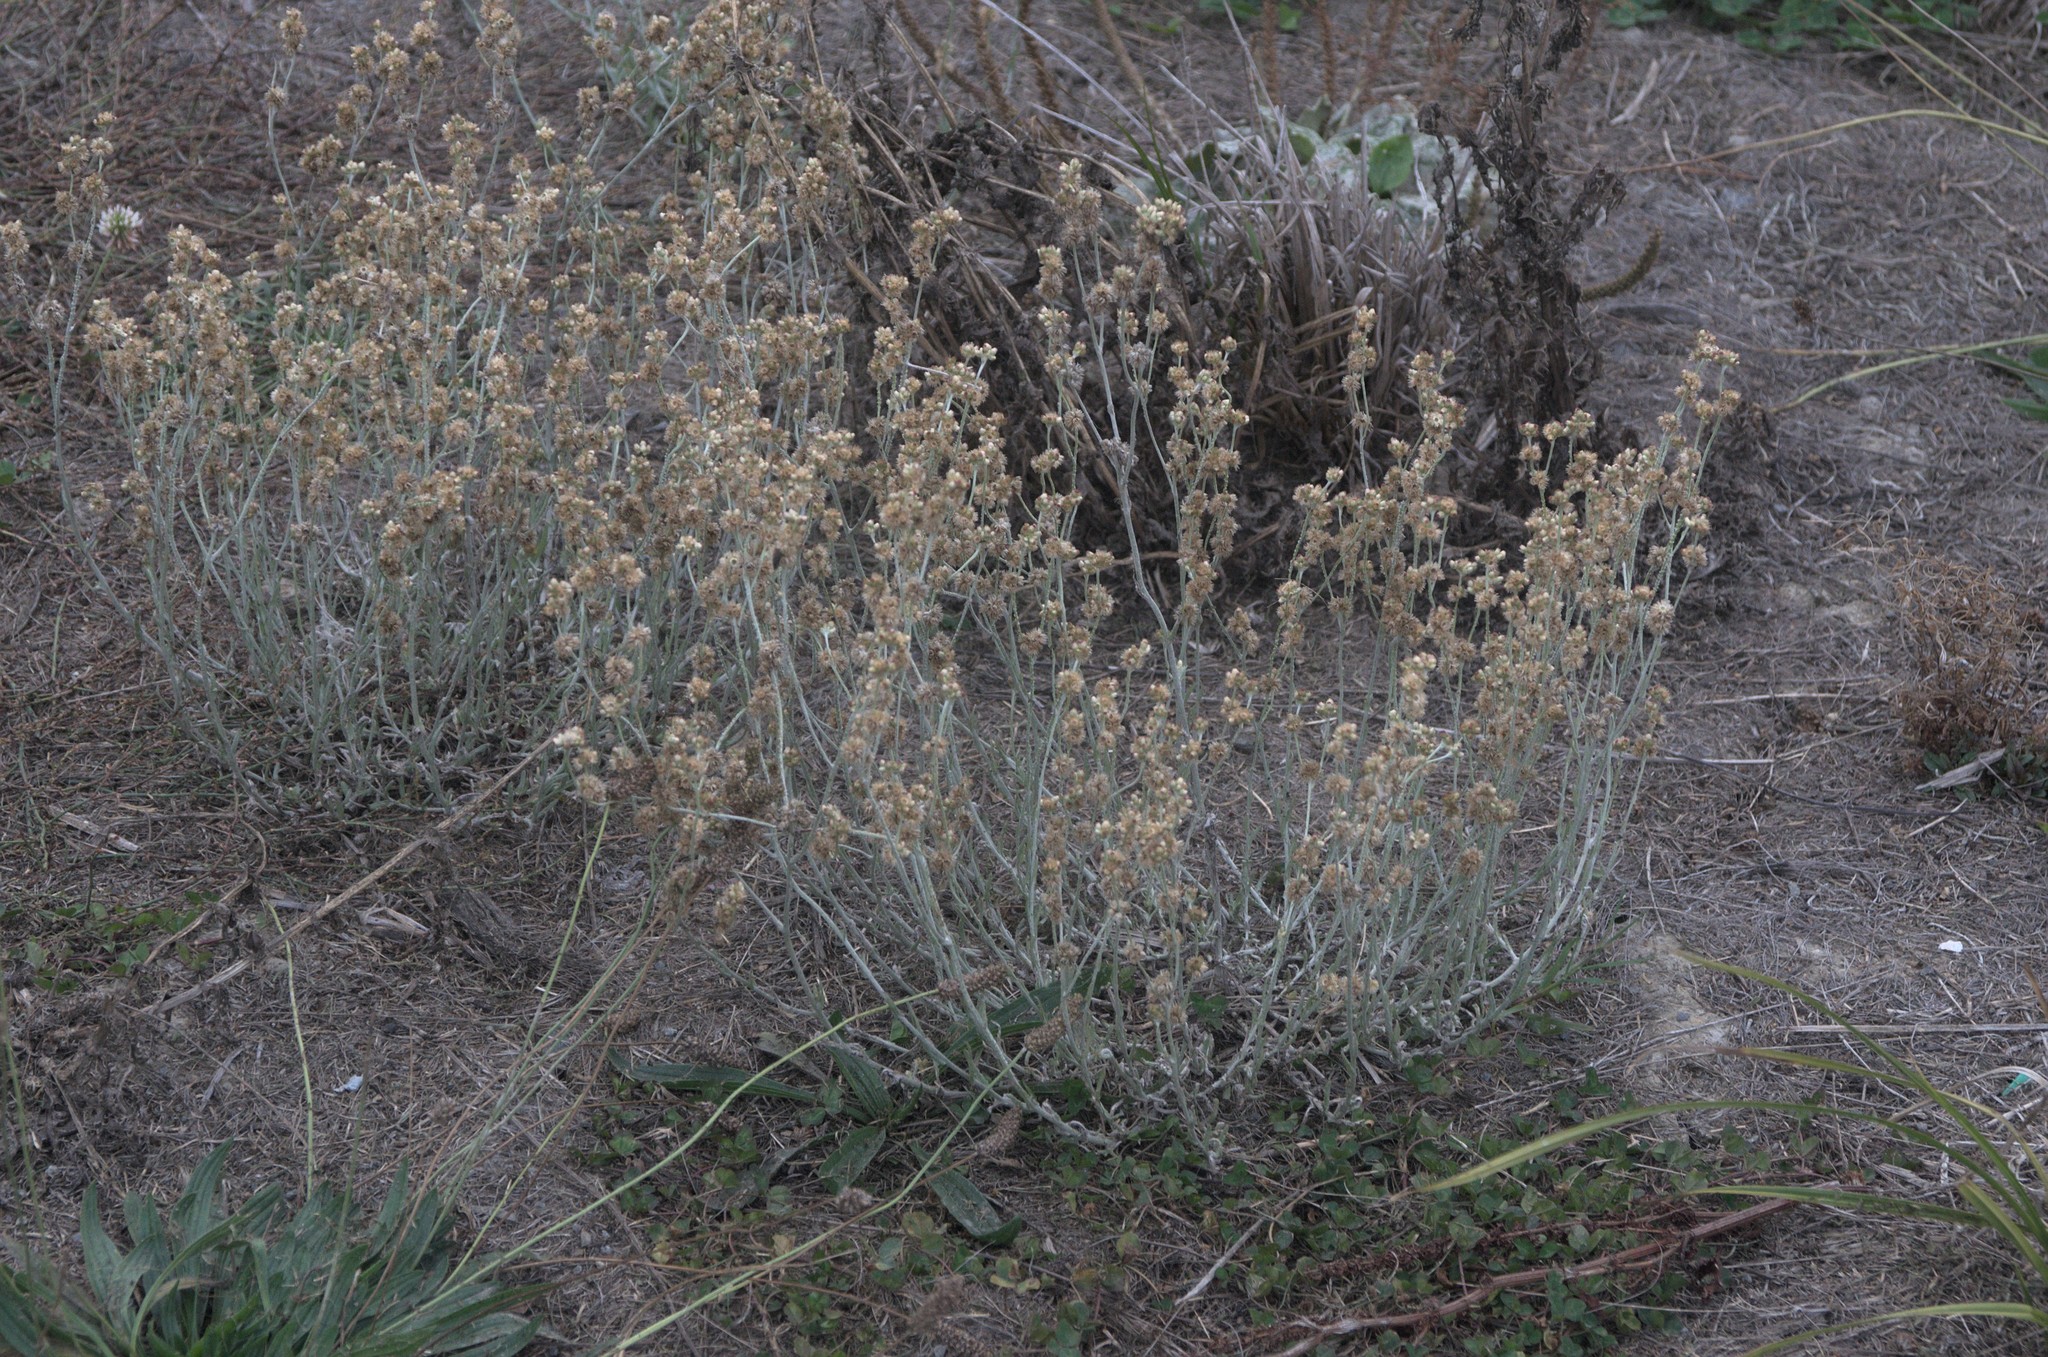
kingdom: Plantae
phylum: Tracheophyta
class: Magnoliopsida
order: Asterales
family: Asteraceae
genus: Helichrysum
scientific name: Helichrysum luteoalbum
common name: Daisy
